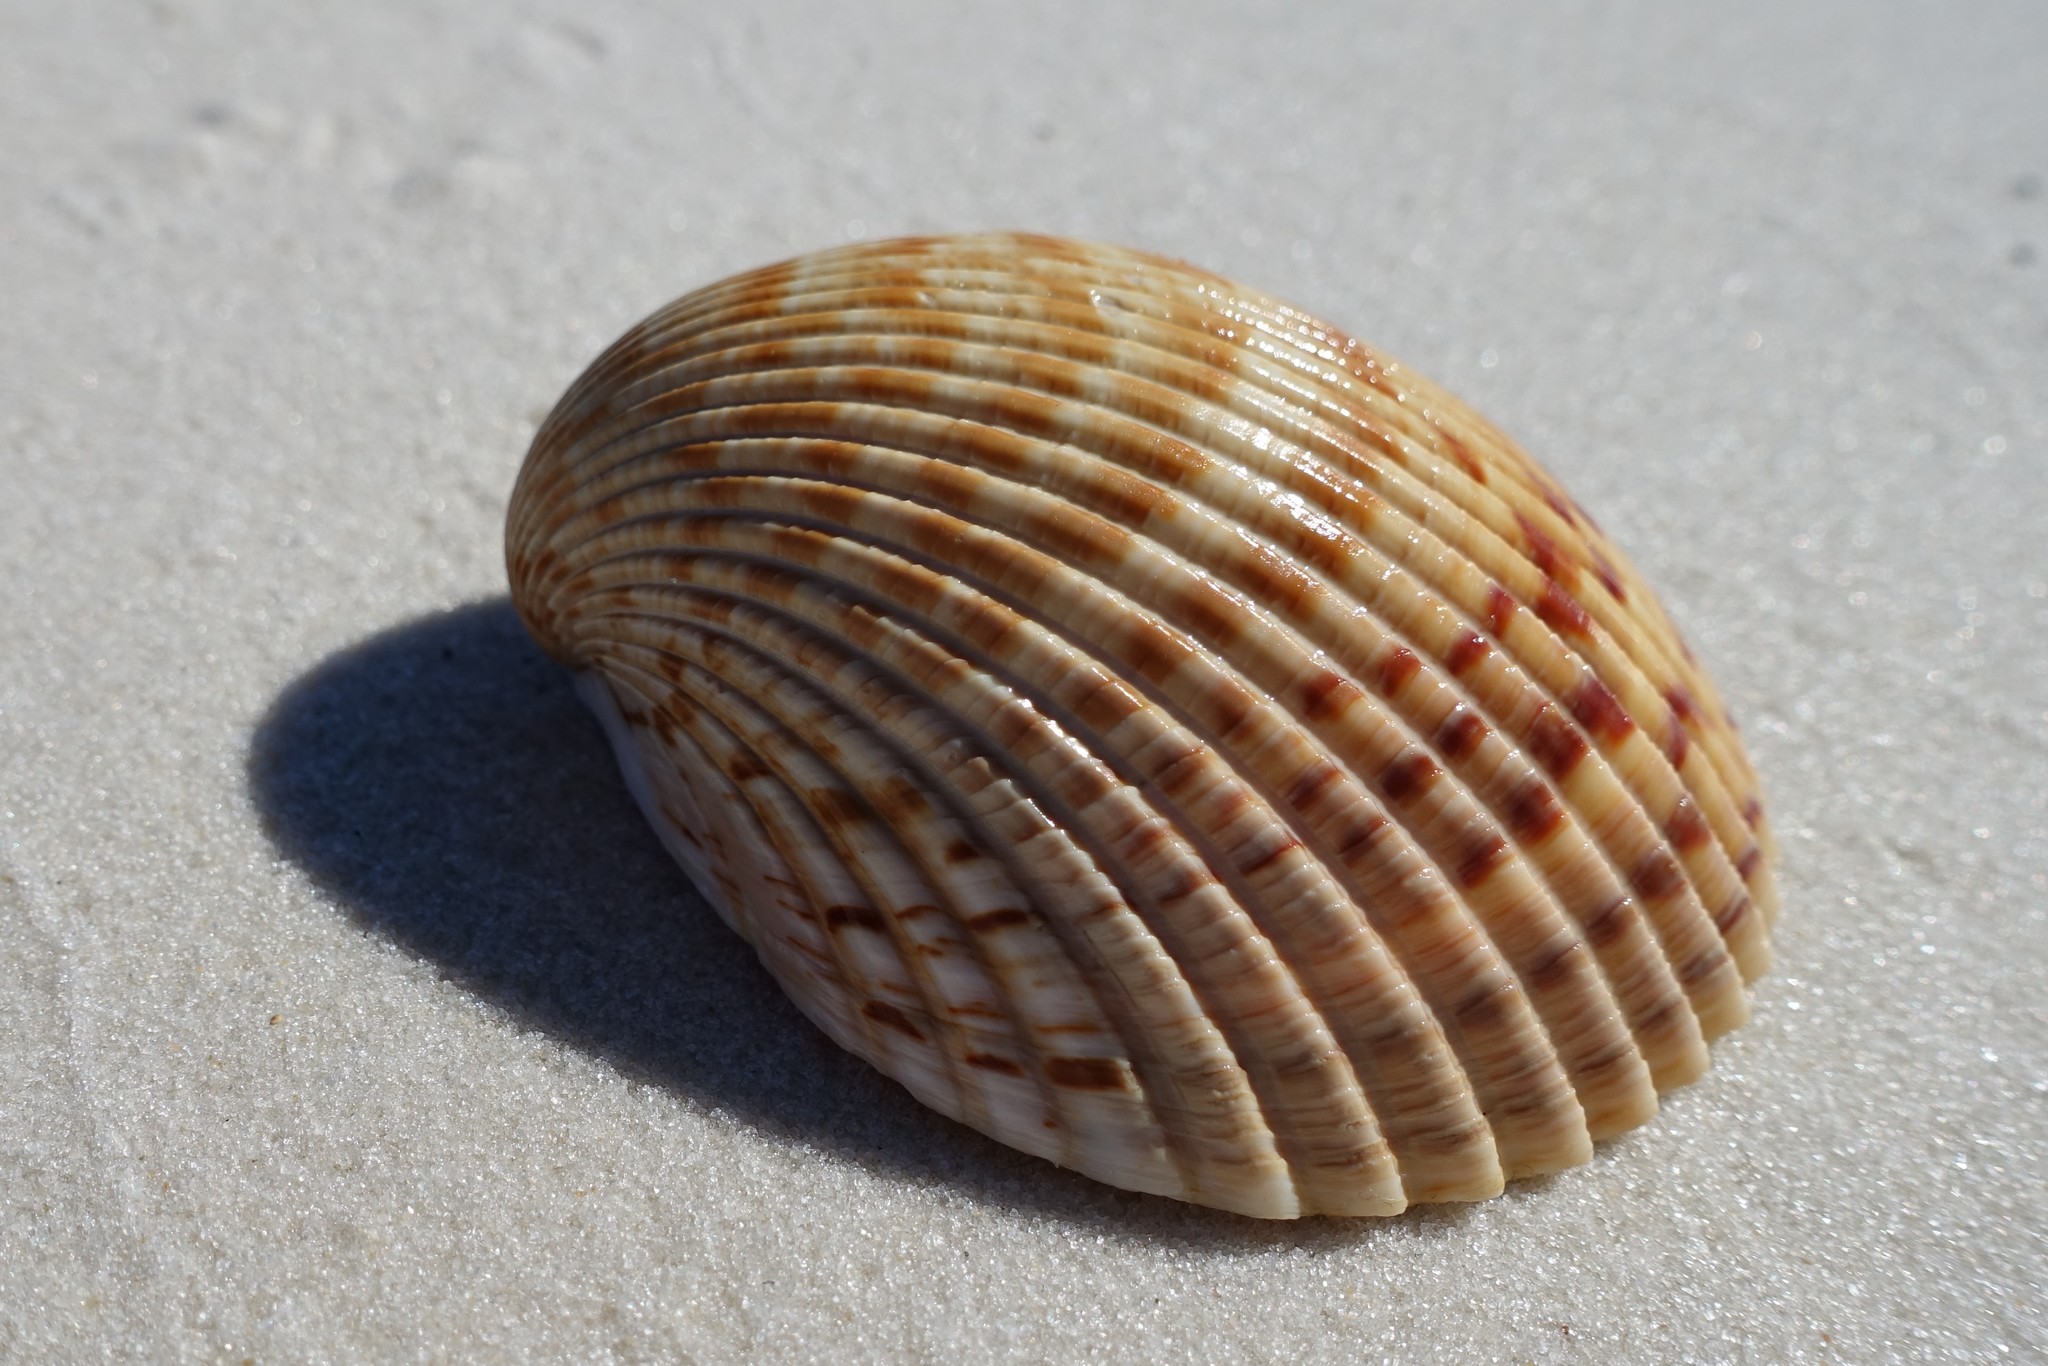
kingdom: Animalia
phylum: Mollusca
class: Bivalvia
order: Cardiida
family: Cardiidae
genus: Dinocardium
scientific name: Dinocardium robustum
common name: Atlantic giant cockle
